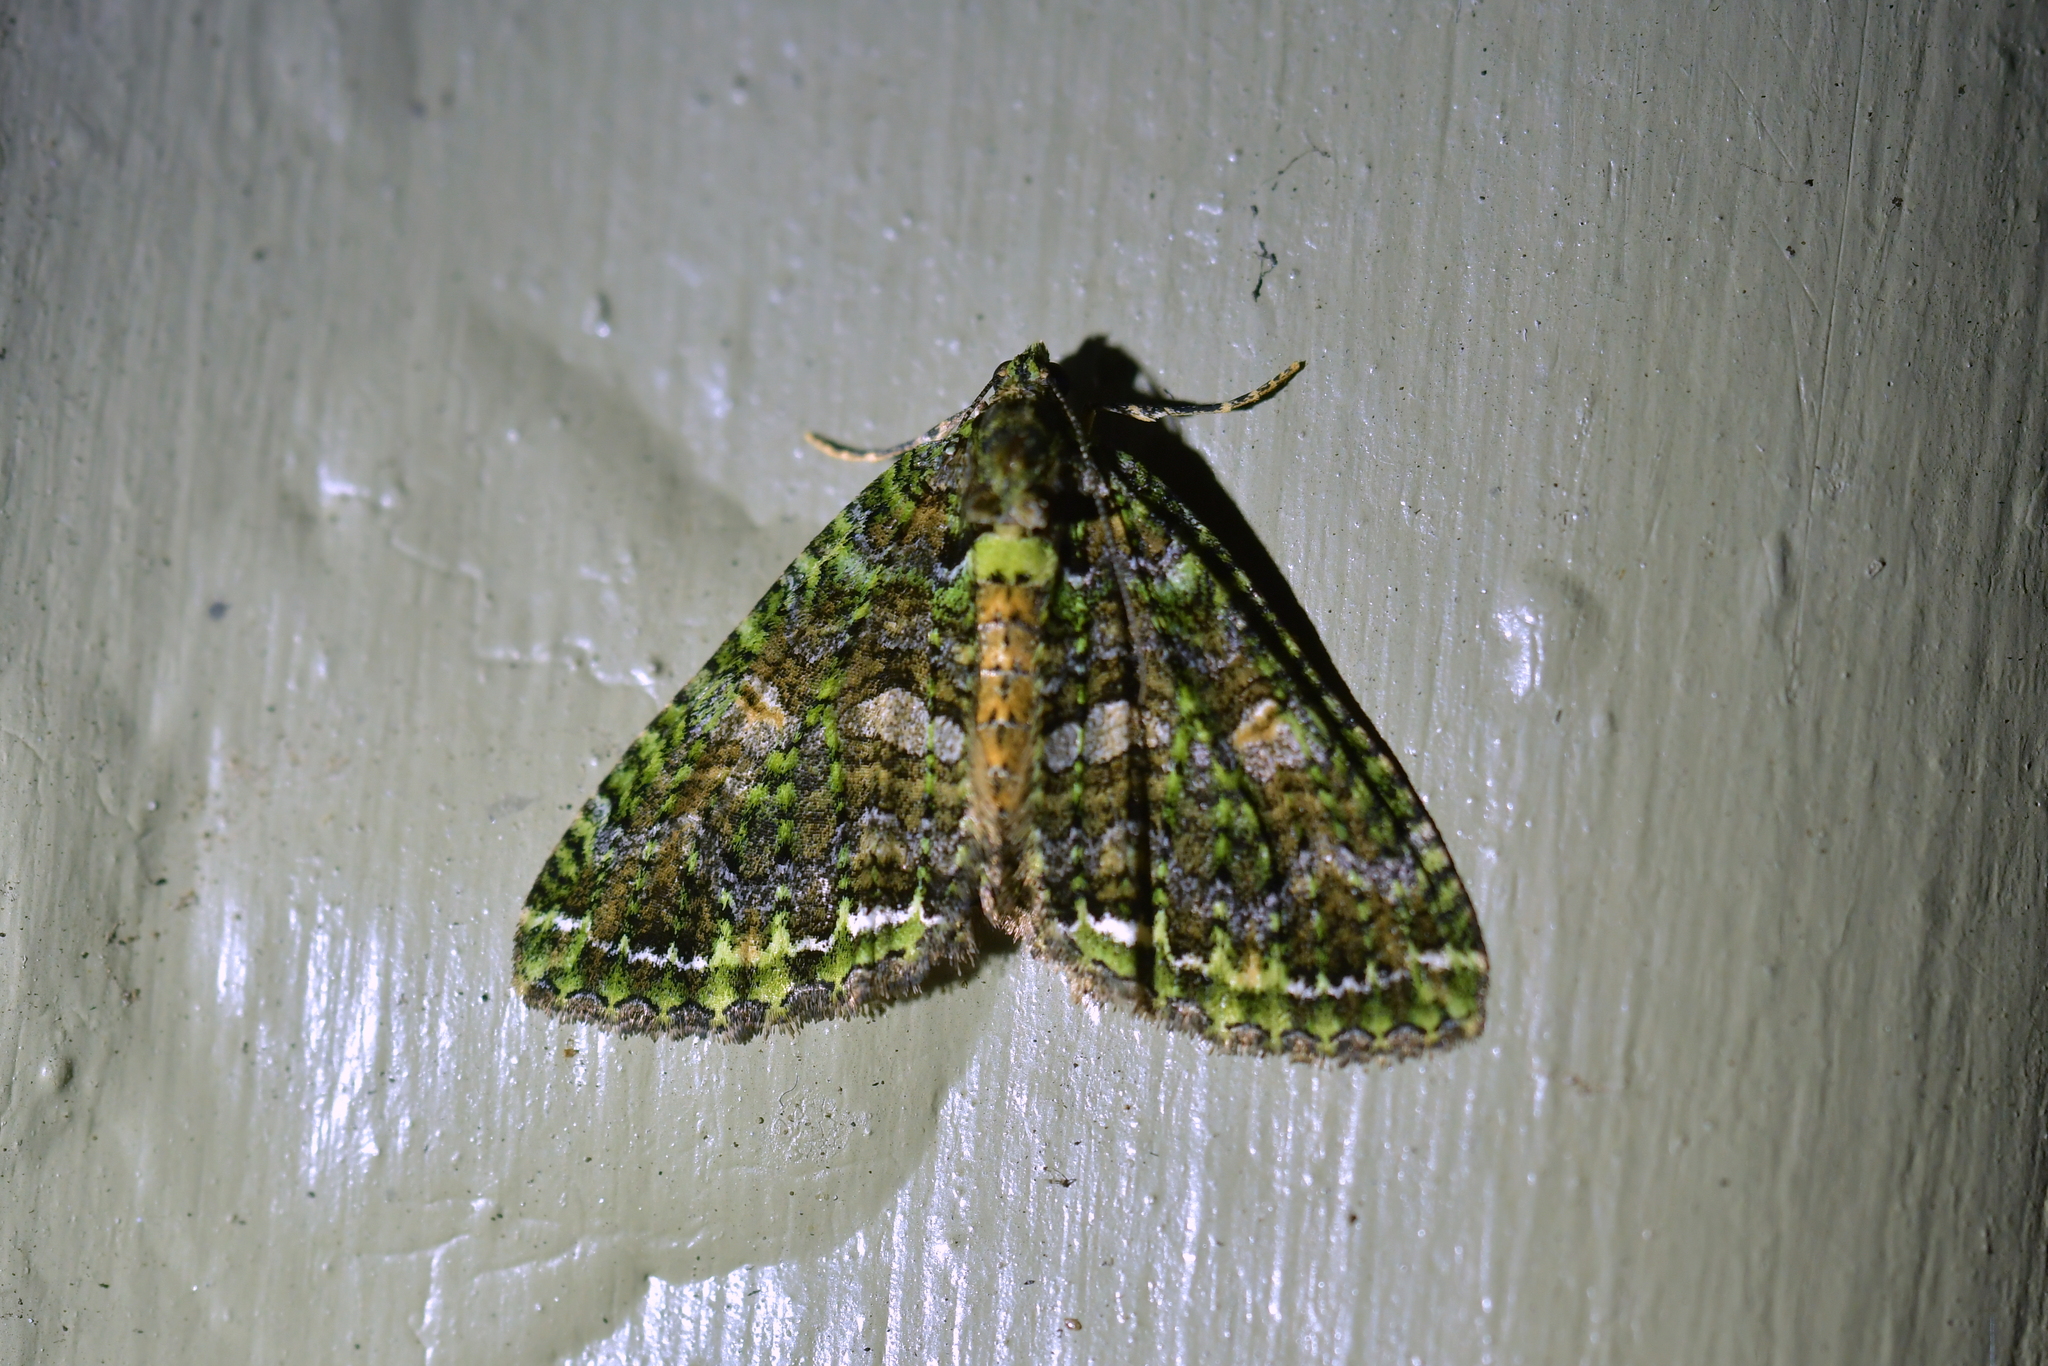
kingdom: Animalia
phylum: Arthropoda
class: Insecta
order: Lepidoptera
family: Geometridae
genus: Austrocidaria
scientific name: Austrocidaria similata
